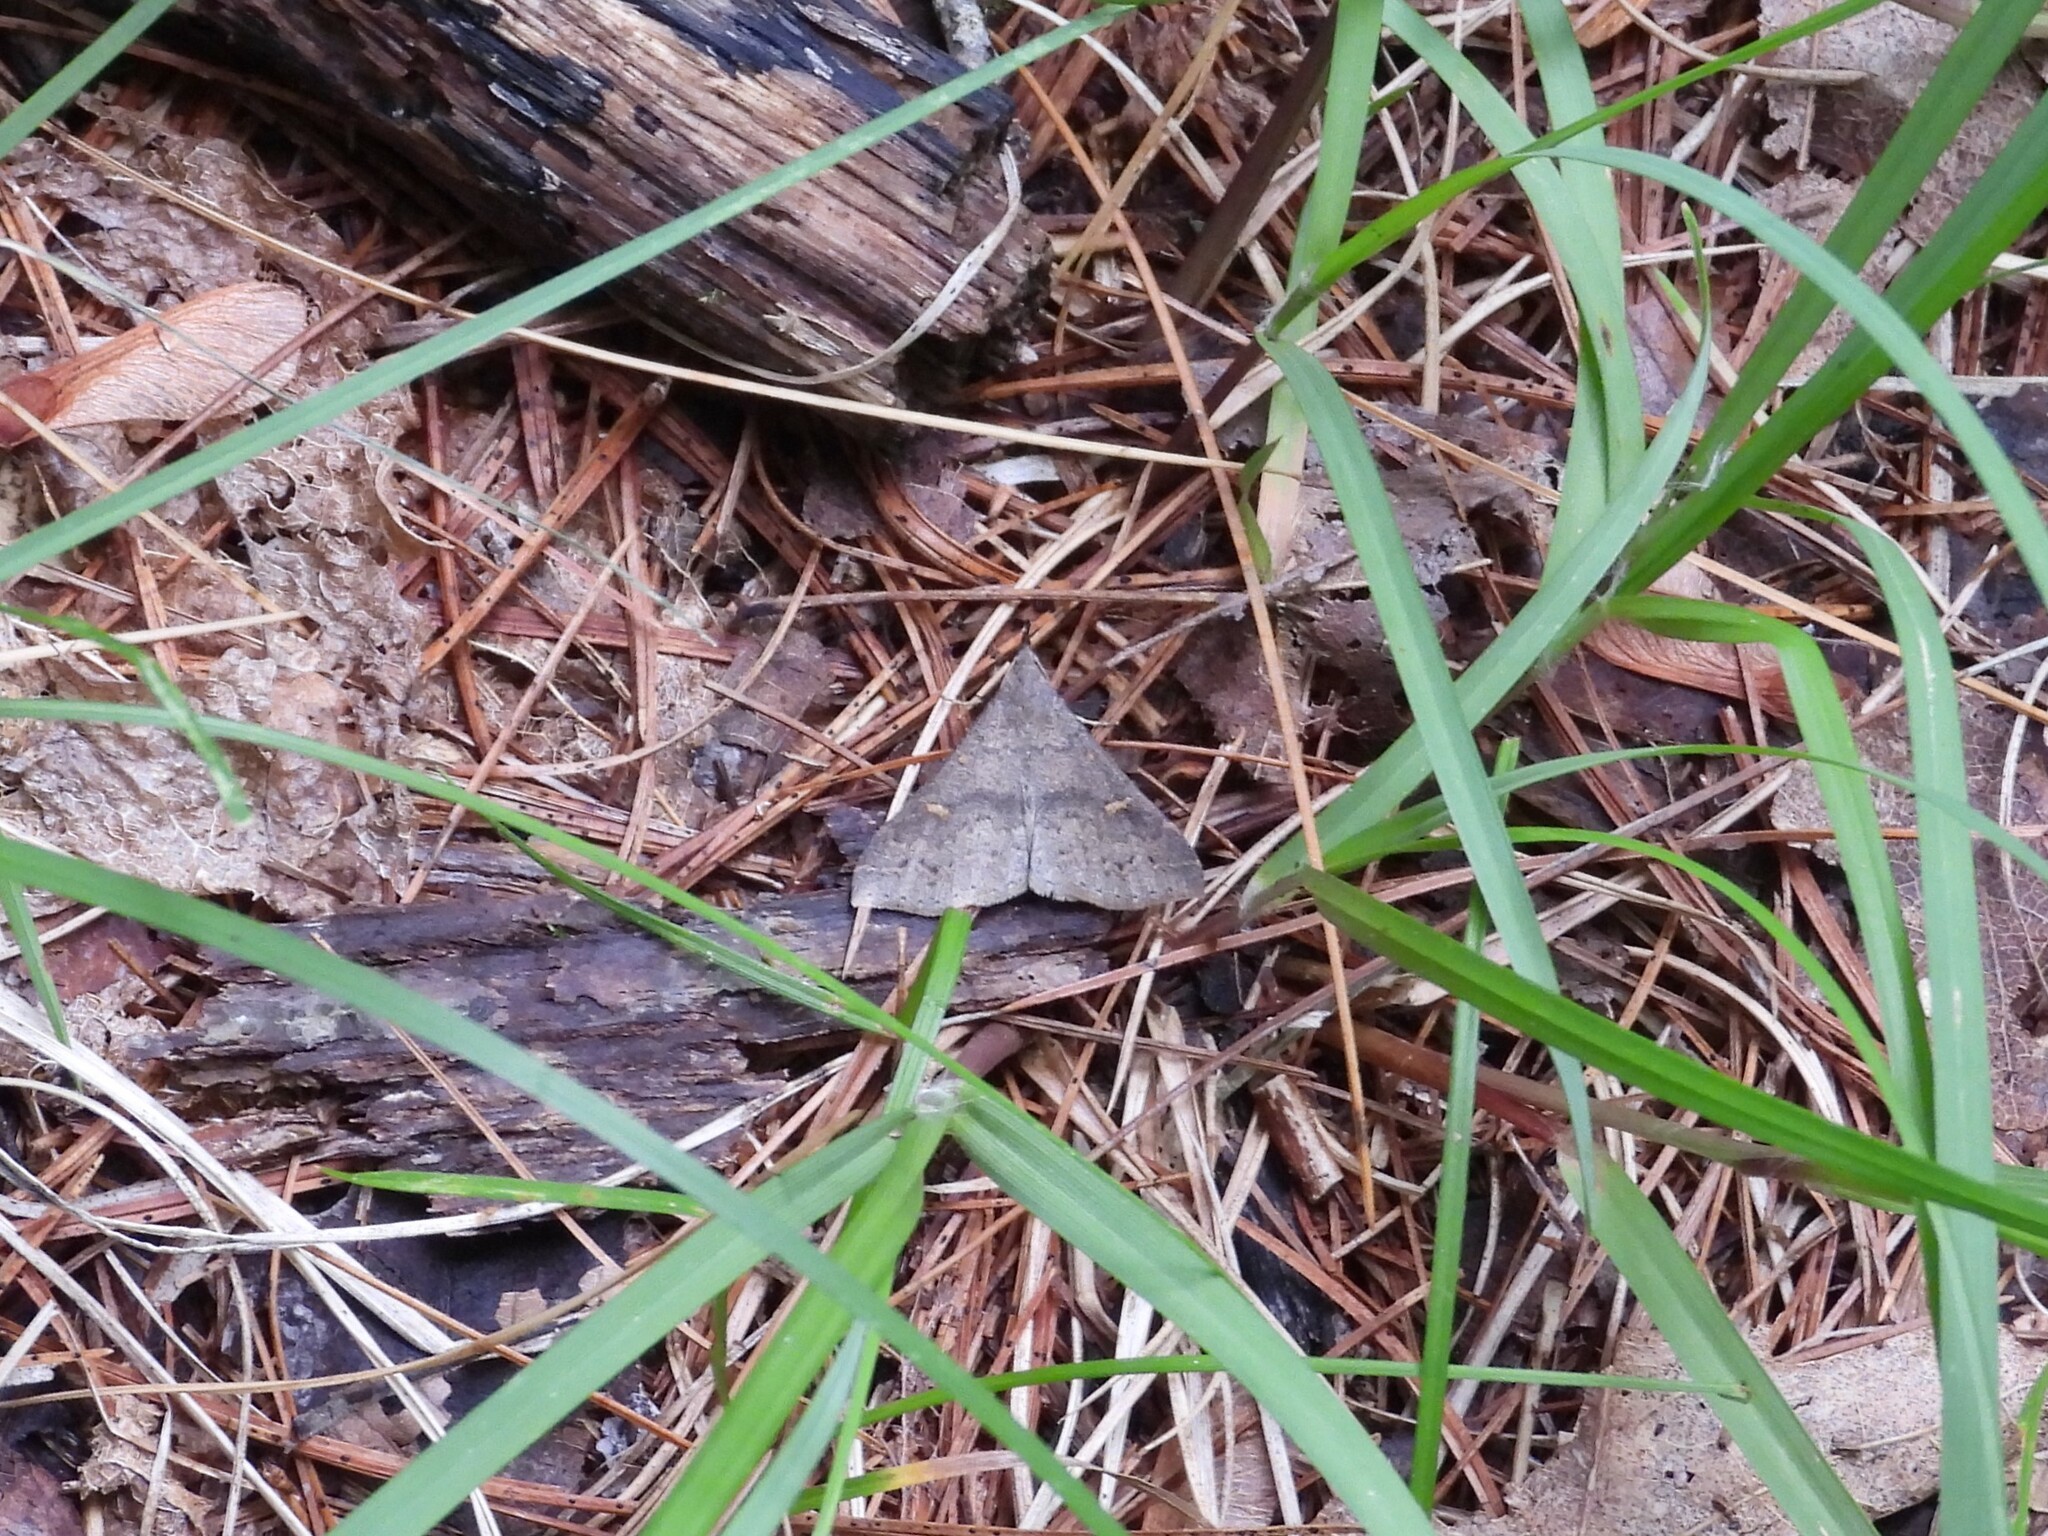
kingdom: Animalia
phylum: Arthropoda
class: Insecta
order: Lepidoptera
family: Erebidae
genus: Renia
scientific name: Renia adspergillus
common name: Speckled renia moth
